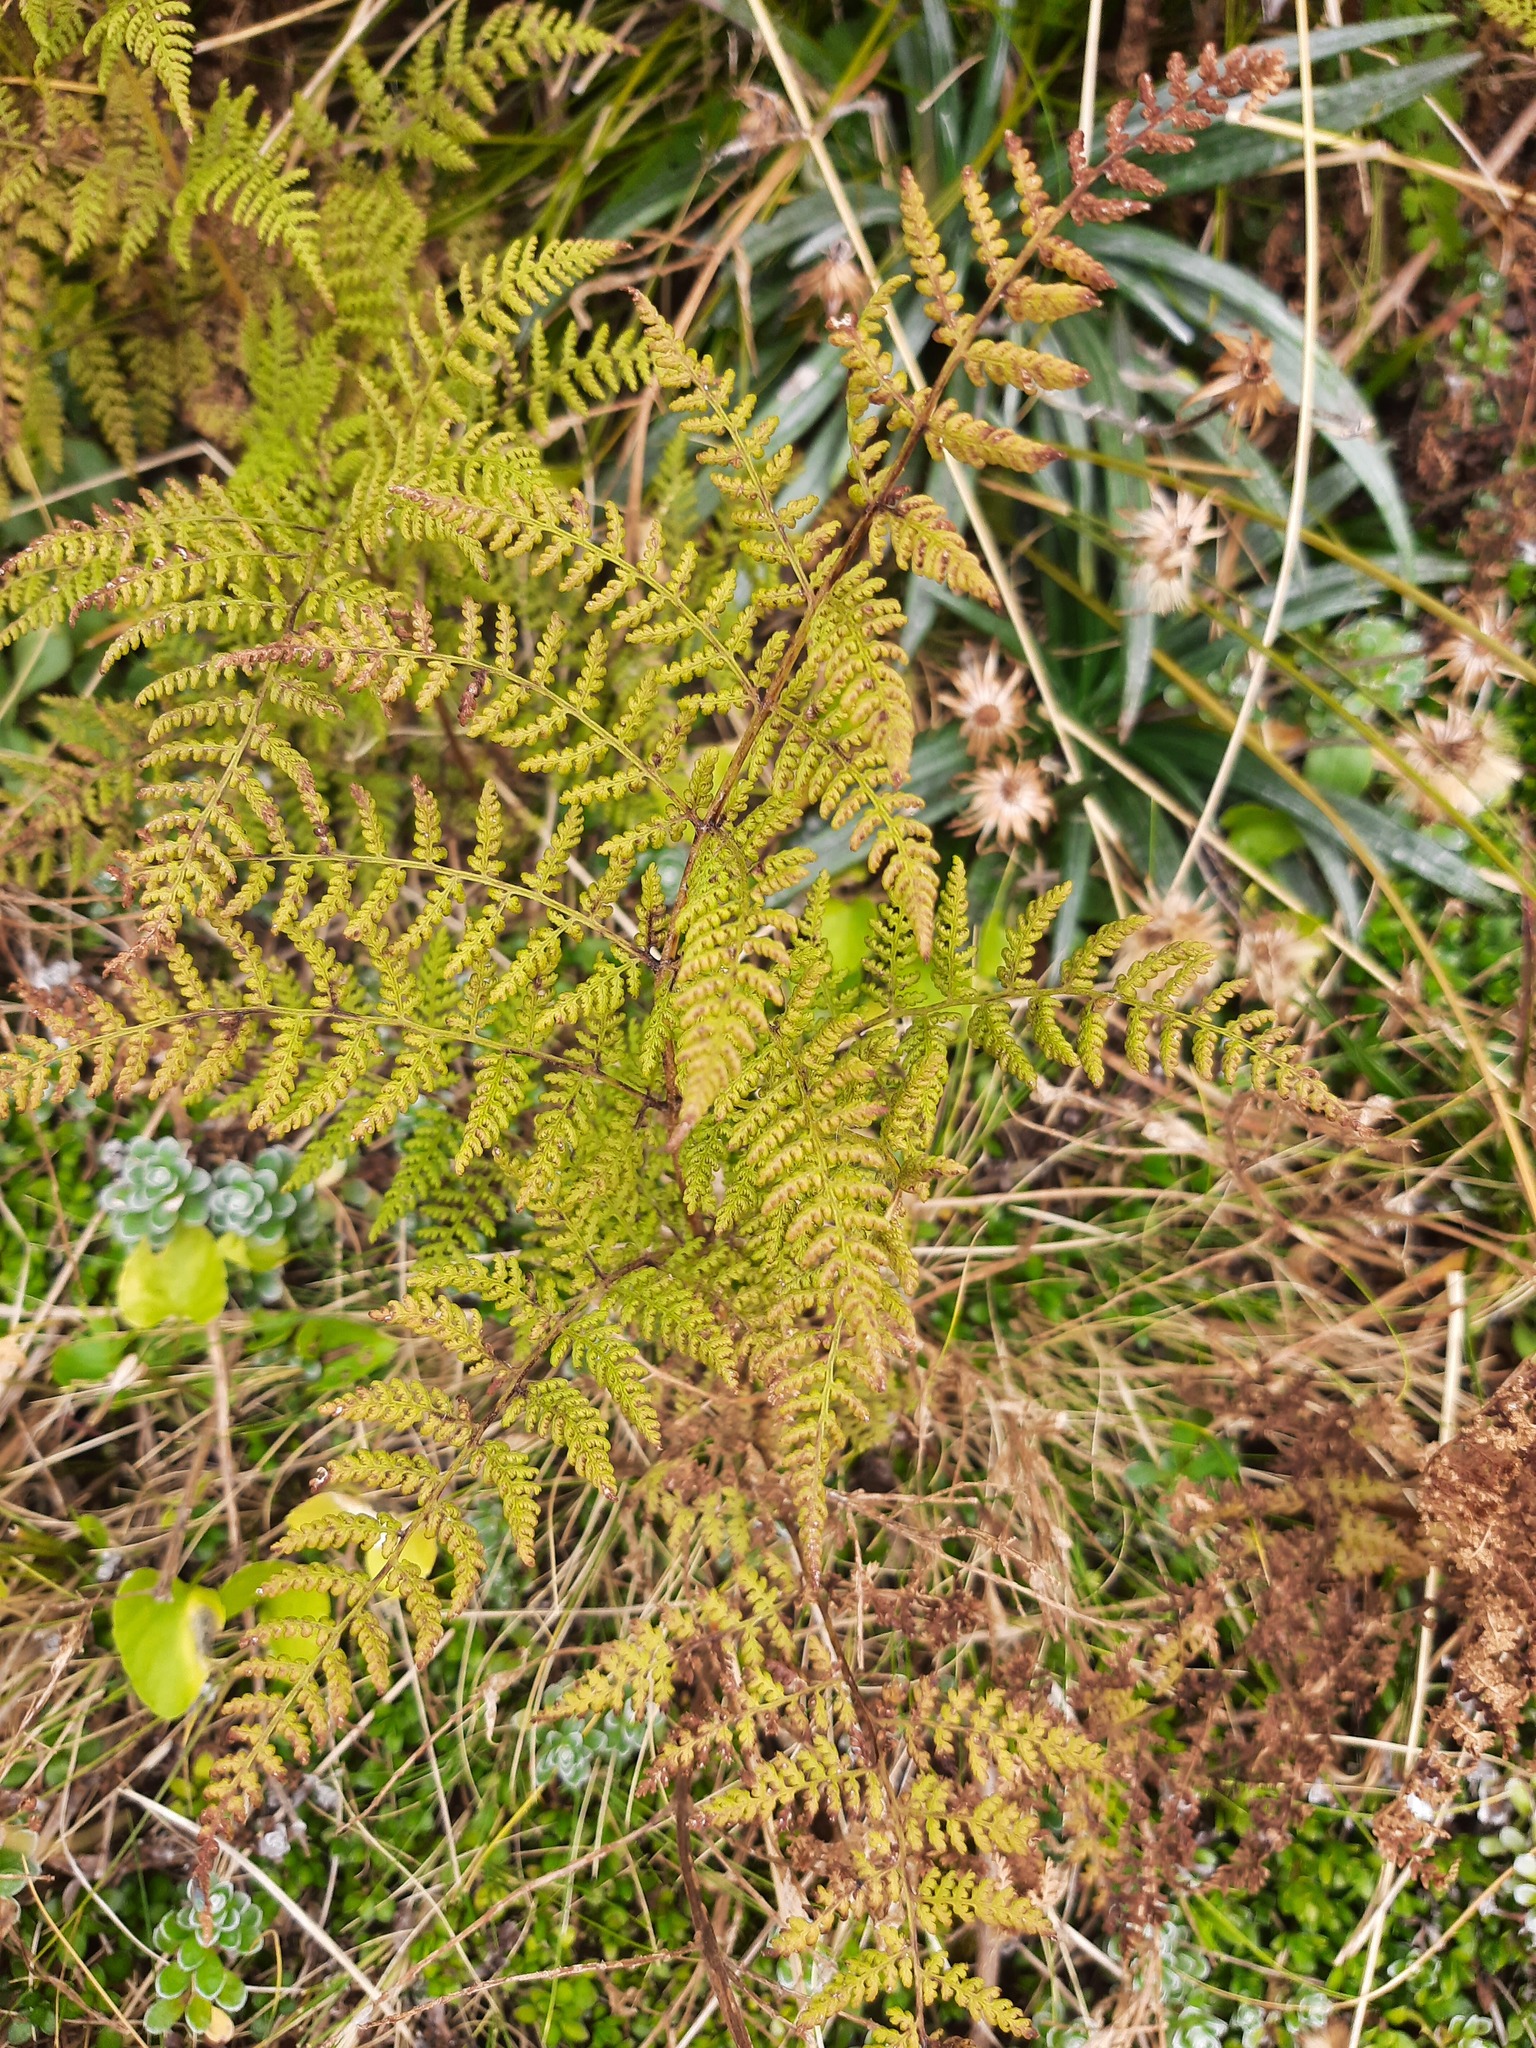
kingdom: Plantae
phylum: Tracheophyta
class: Polypodiopsida
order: Polypodiales
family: Dennstaedtiaceae
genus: Hypolepis
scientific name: Hypolepis millefolium
